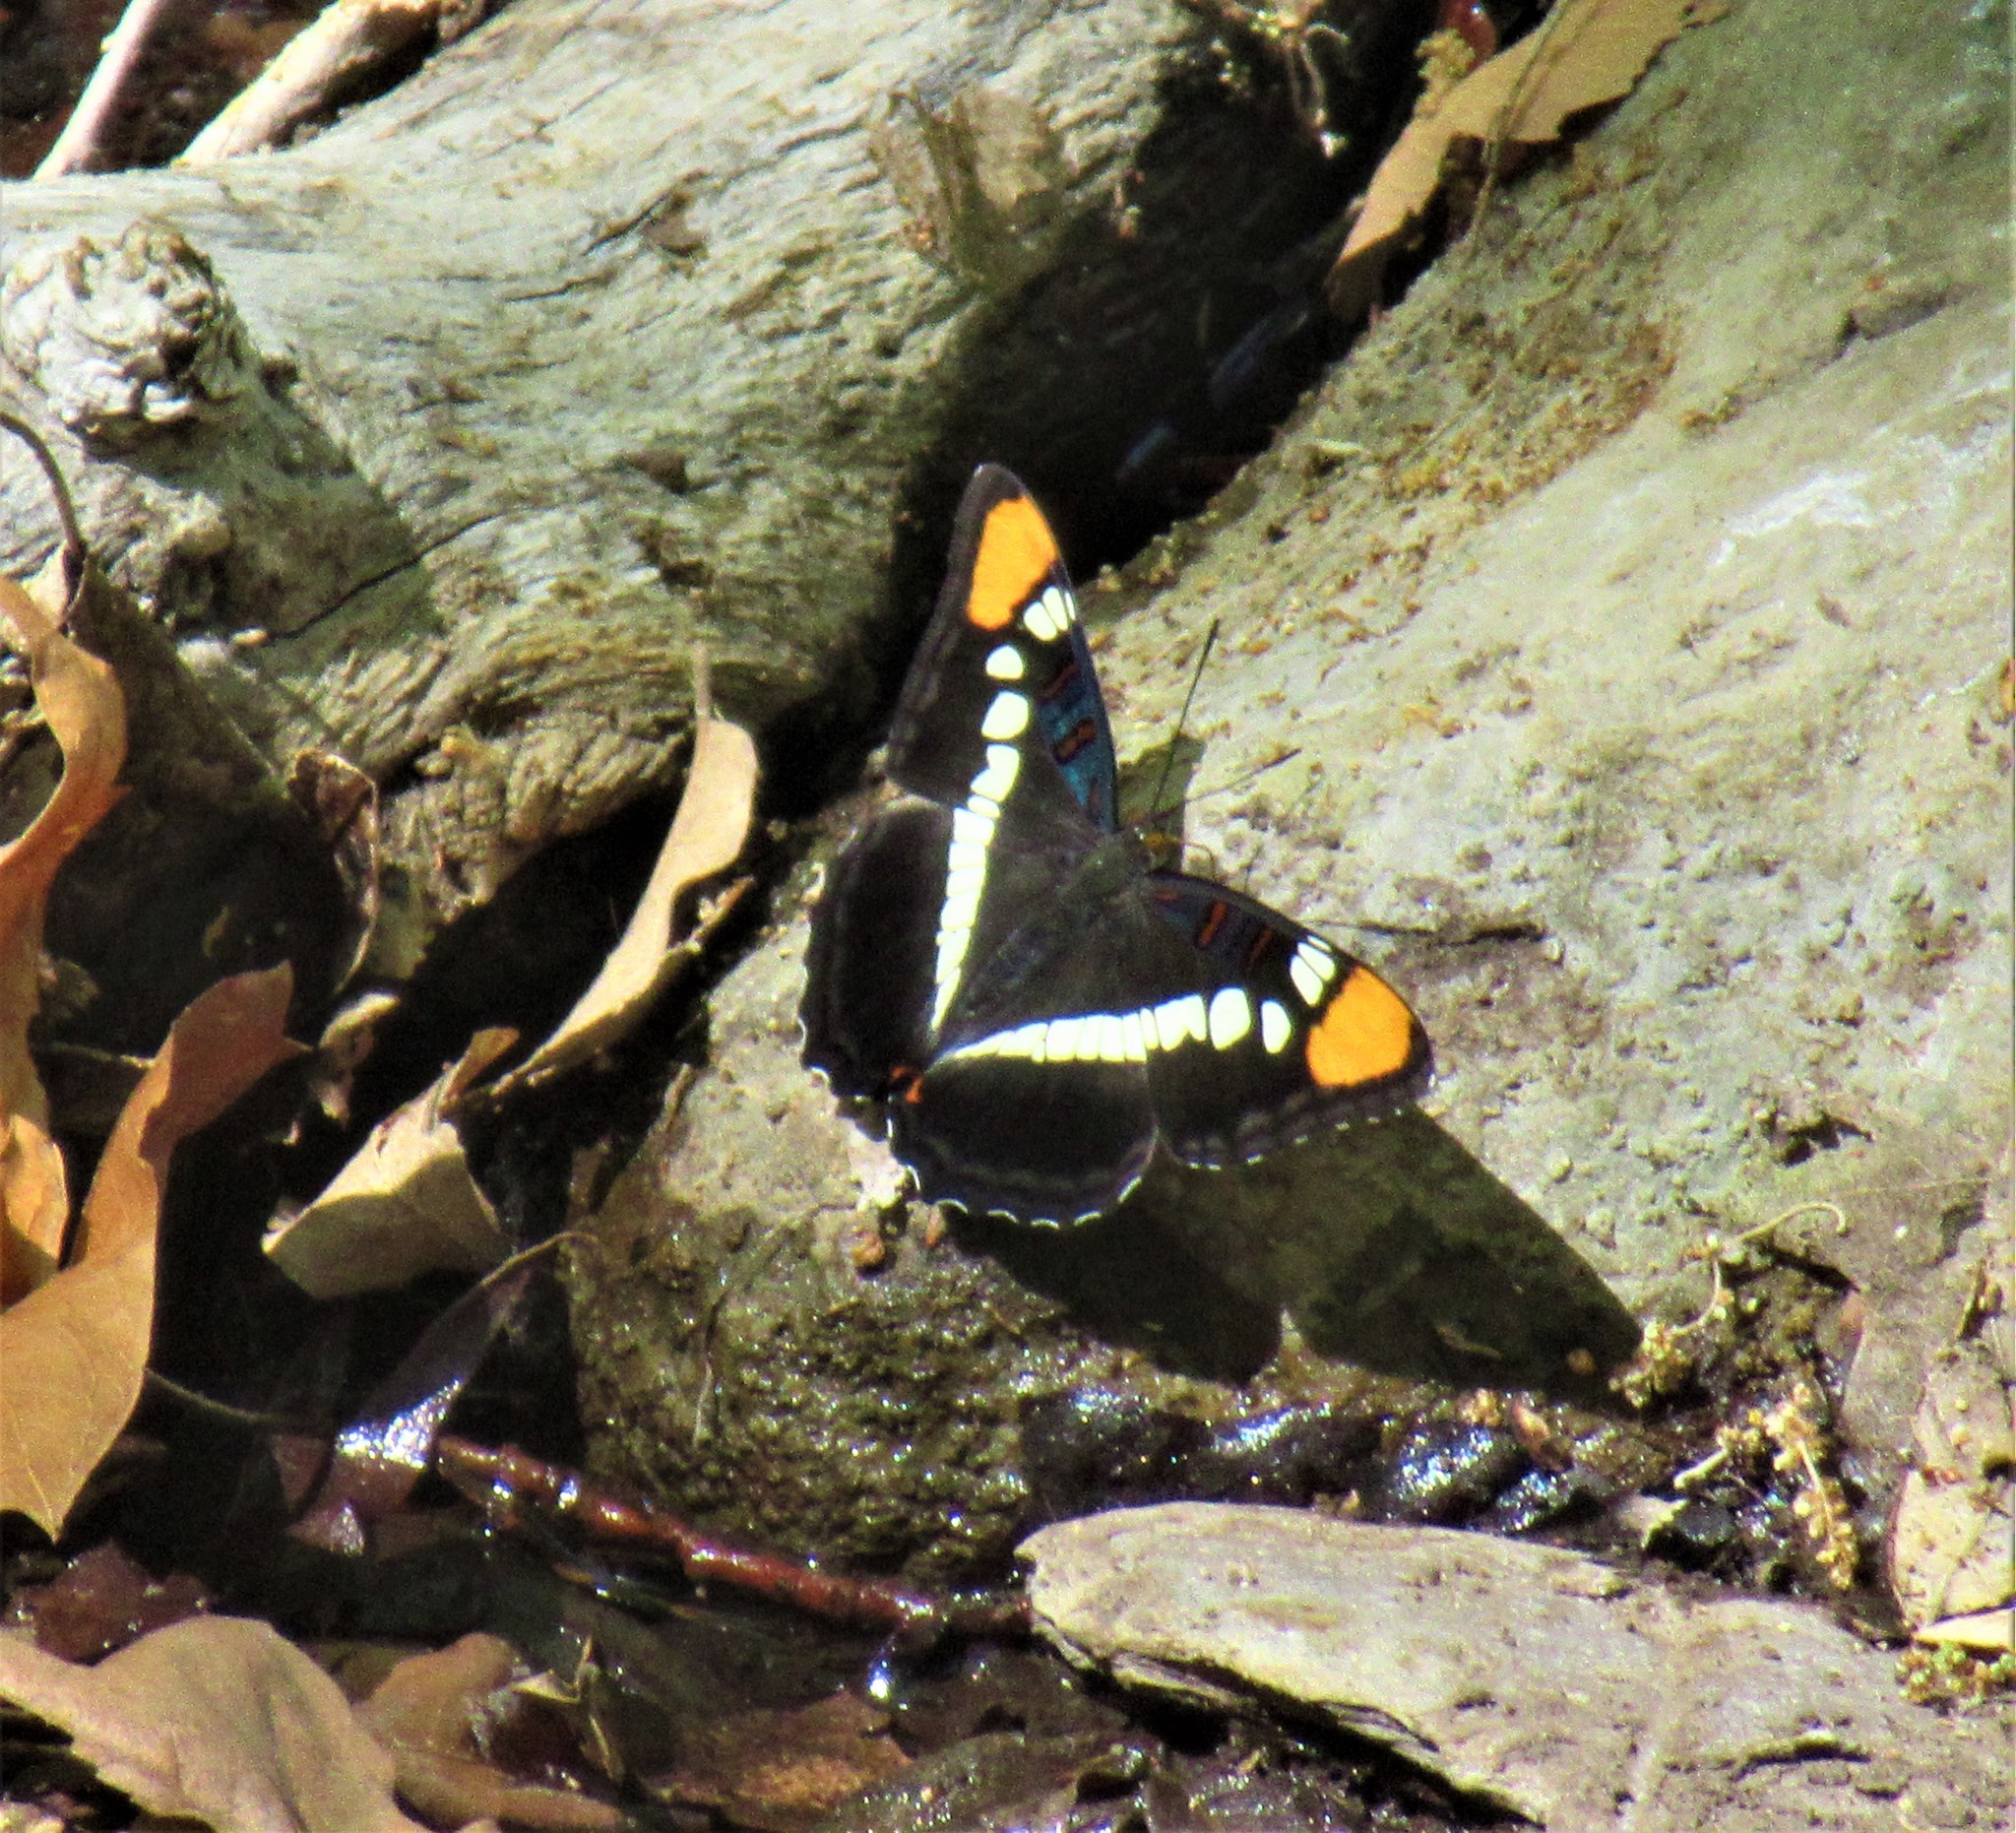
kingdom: Animalia
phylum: Arthropoda
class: Insecta
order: Lepidoptera
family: Nymphalidae
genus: Limenitis
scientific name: Limenitis bredowii
